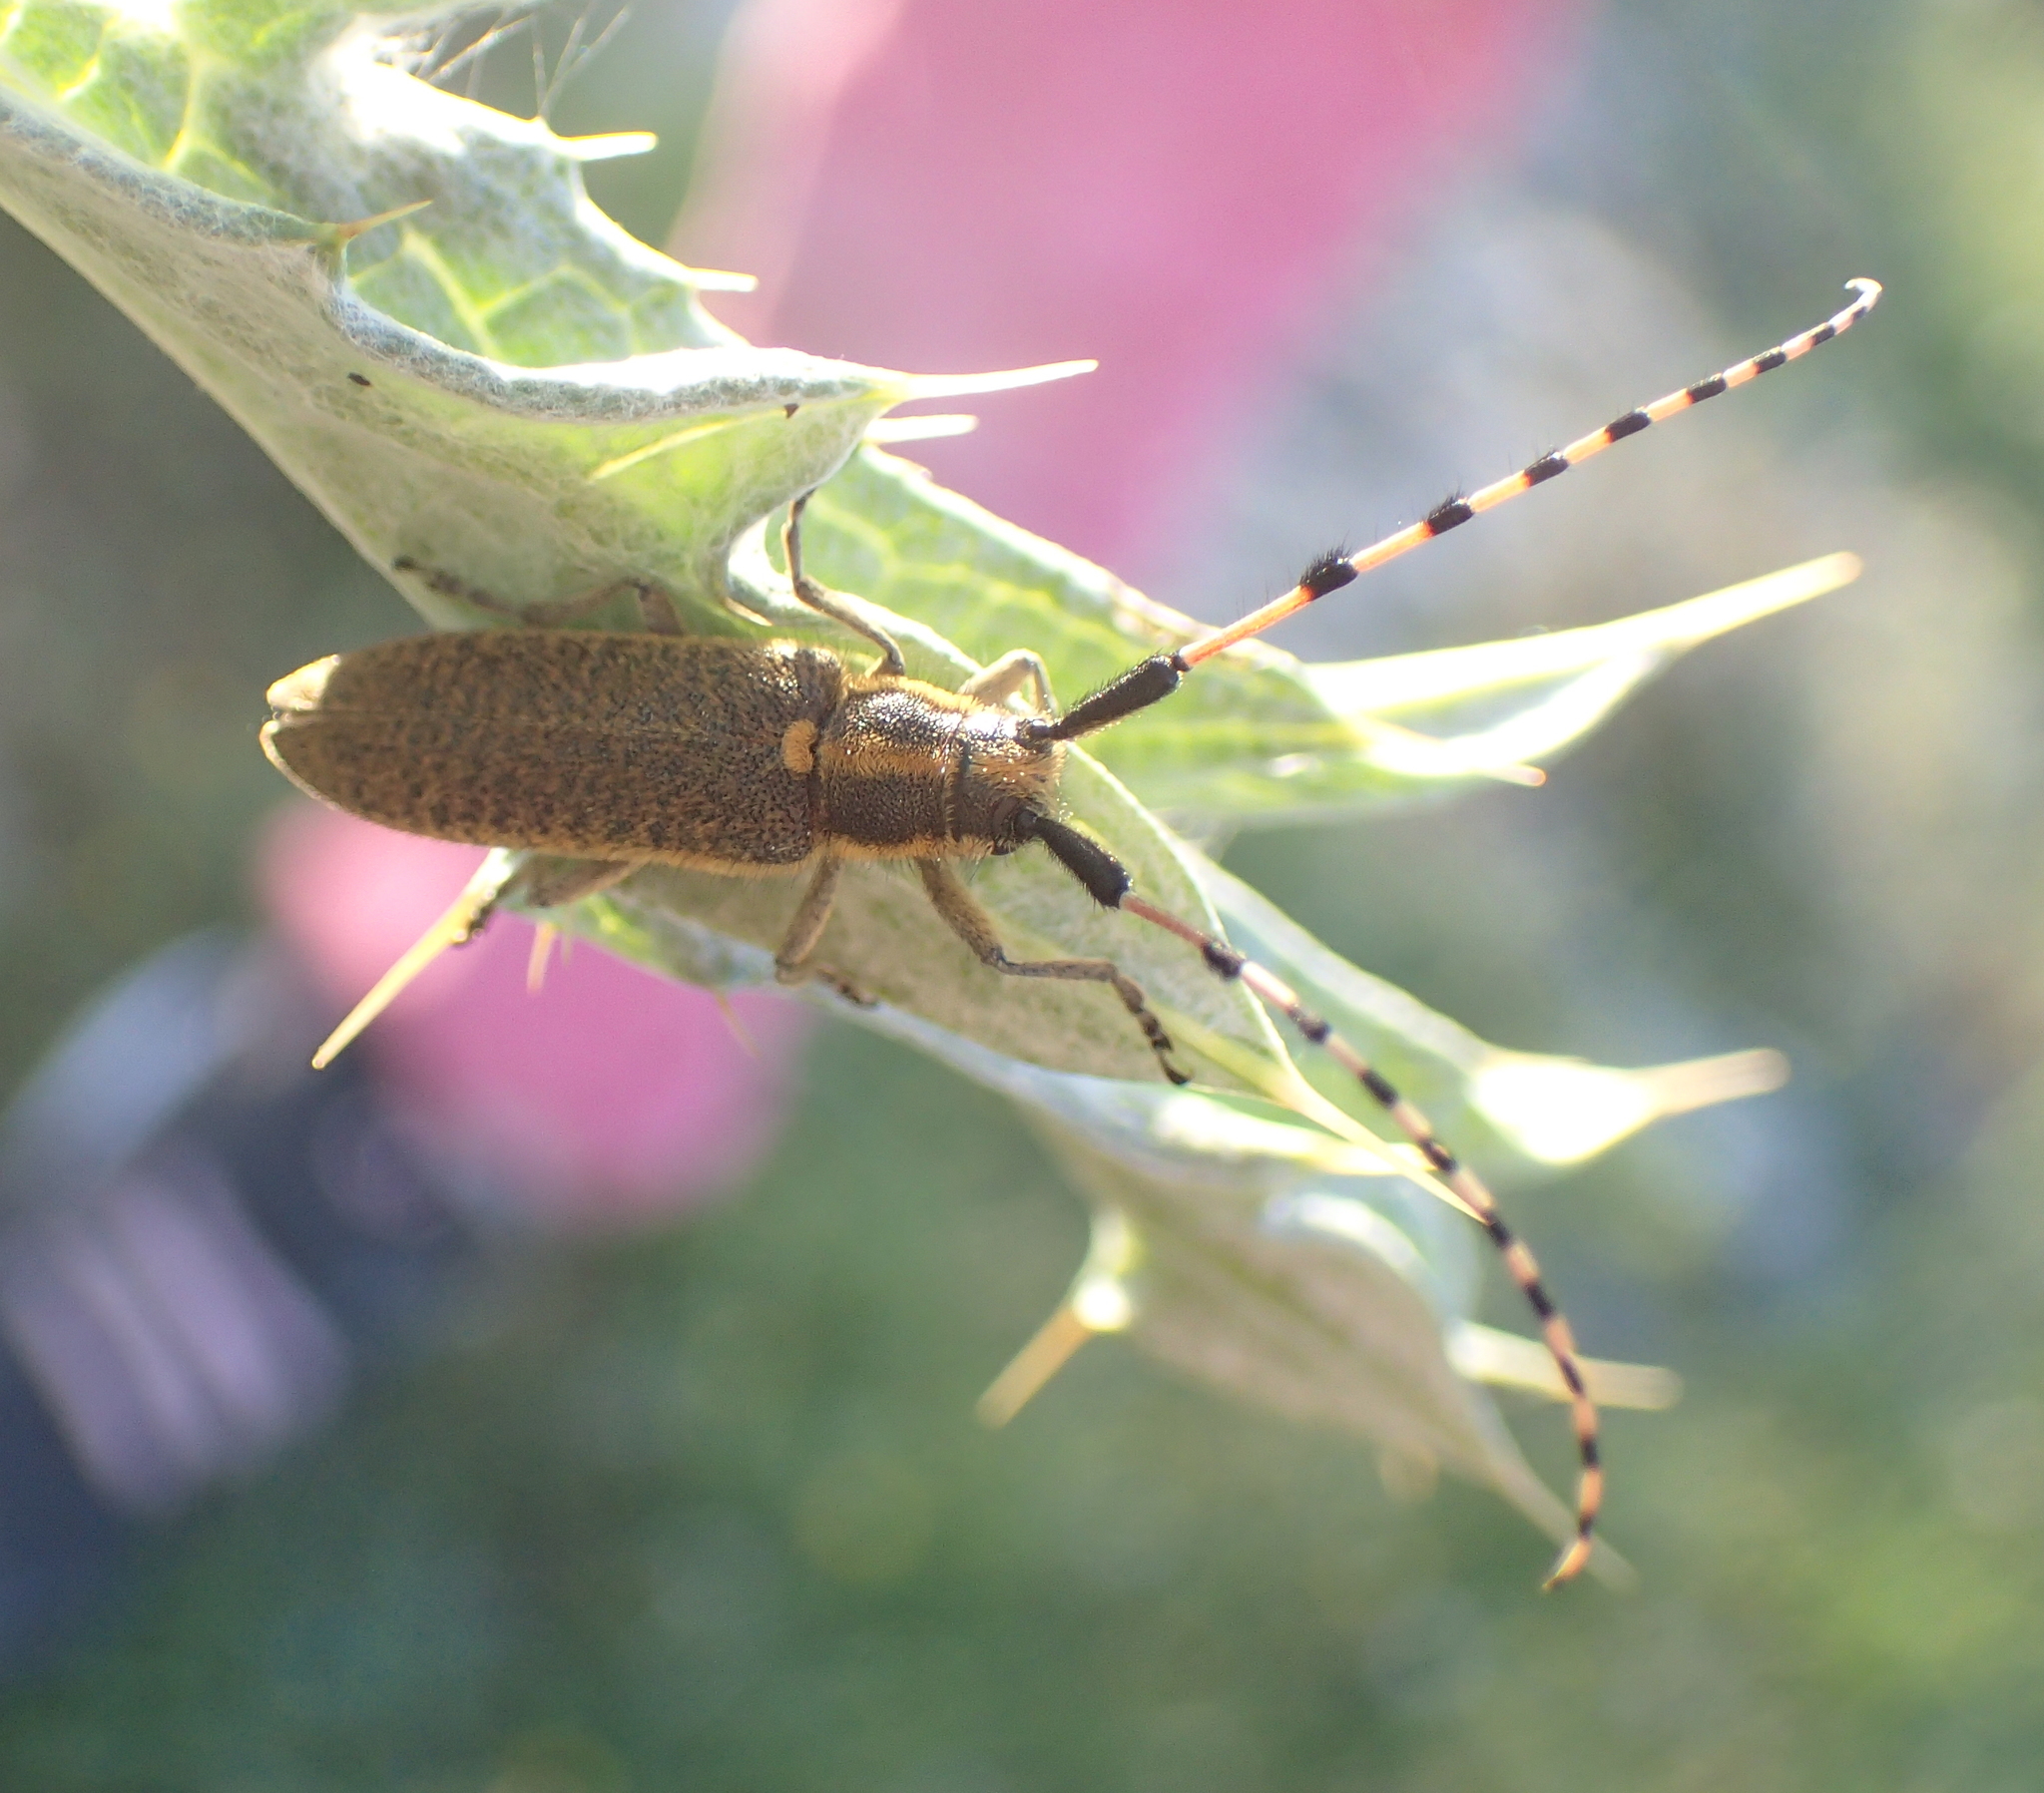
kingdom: Animalia
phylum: Arthropoda
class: Insecta
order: Coleoptera
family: Cerambycidae
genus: Agapanthia
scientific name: Agapanthia dahlii
